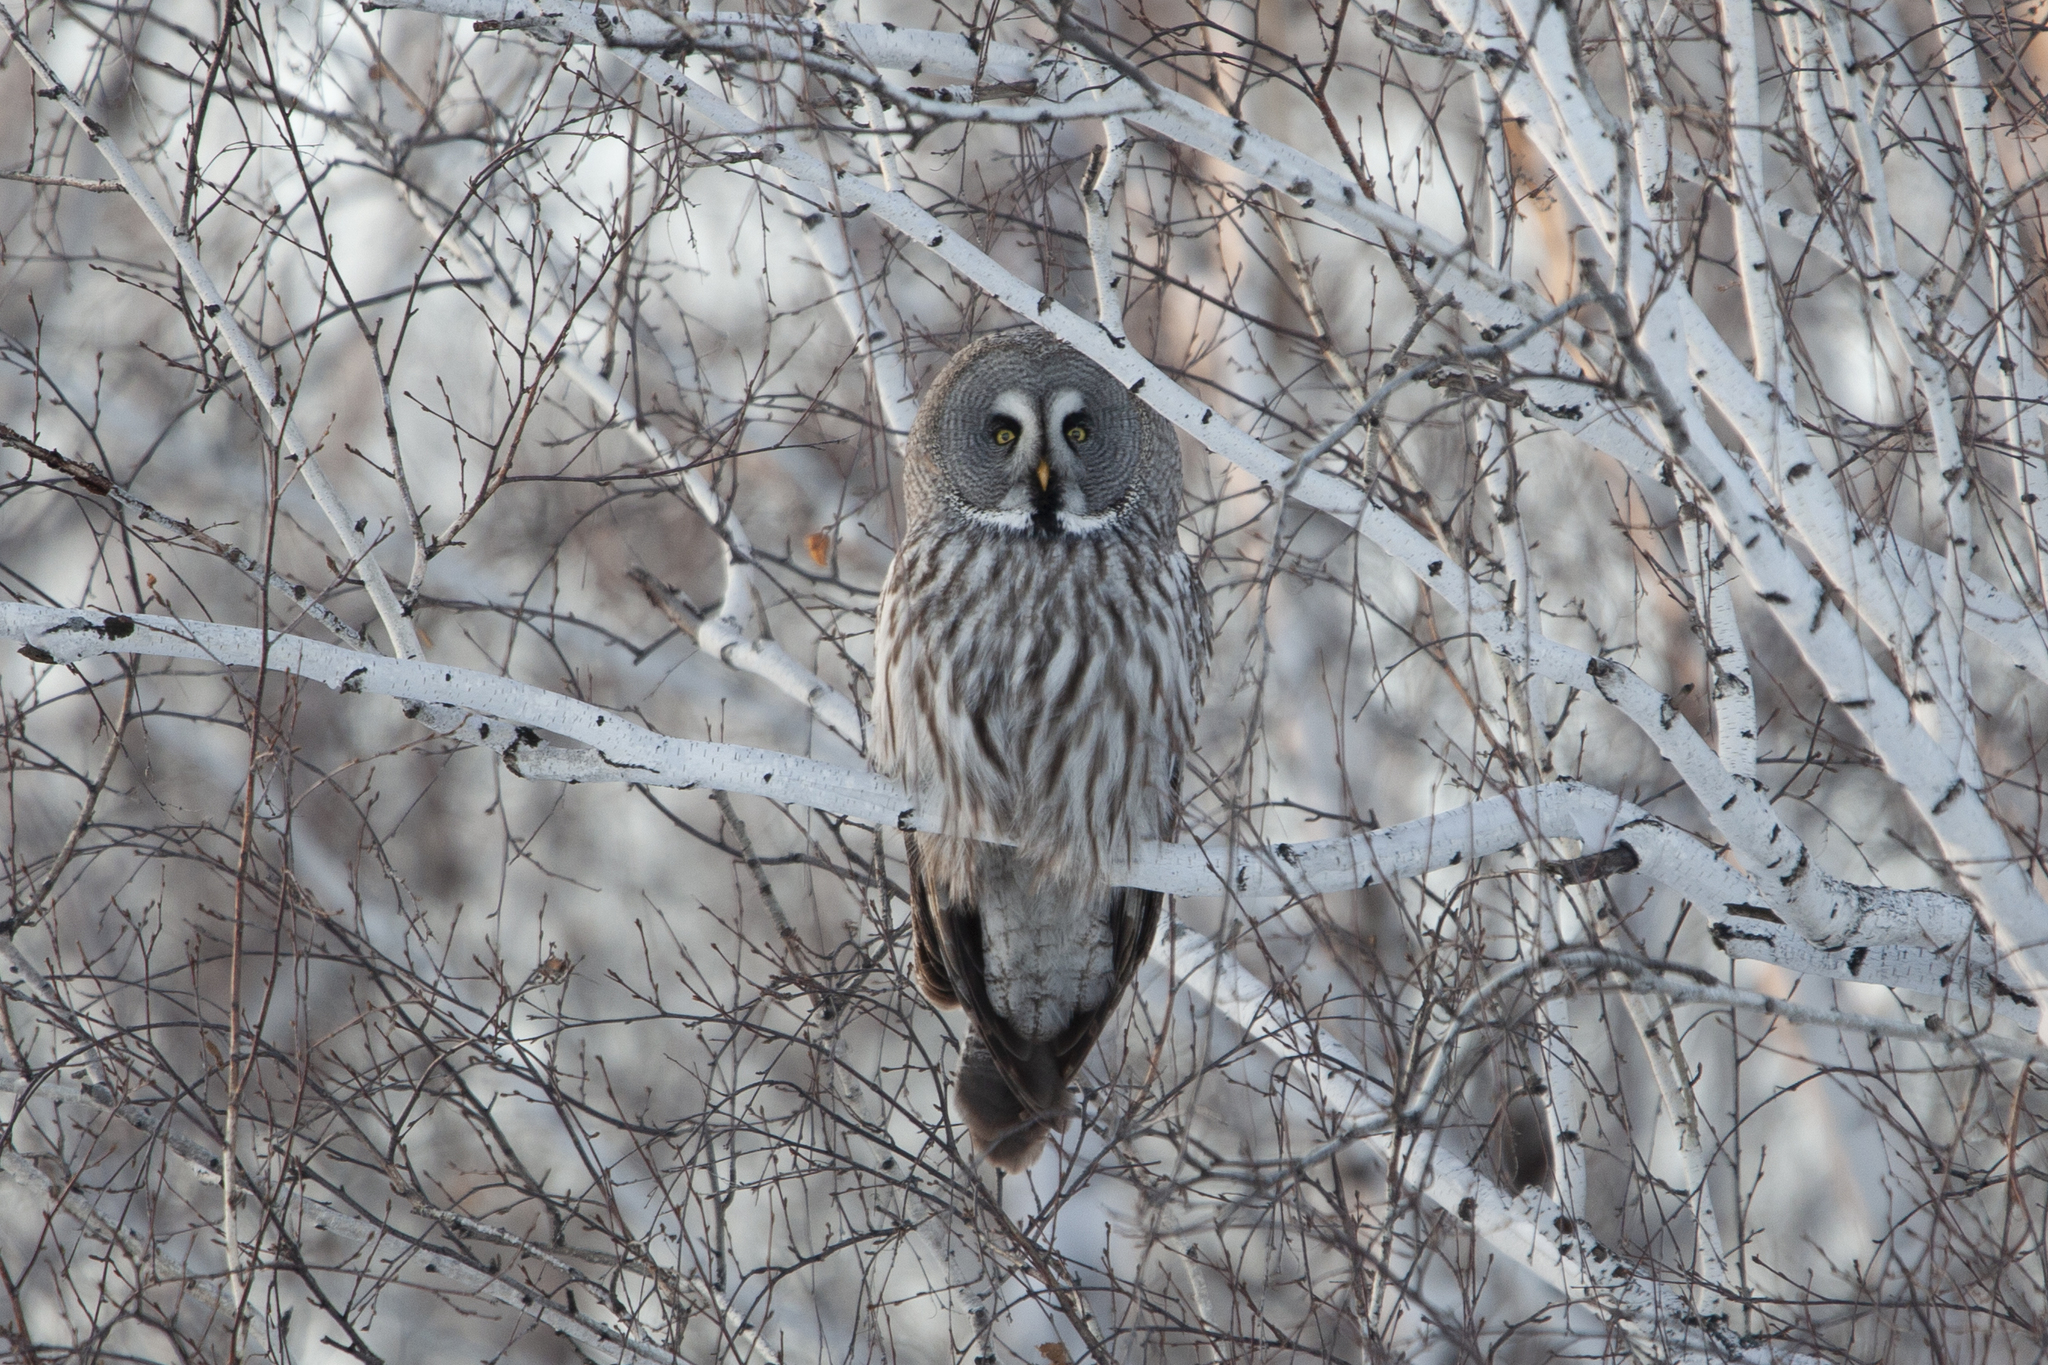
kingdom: Animalia
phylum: Chordata
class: Aves
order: Strigiformes
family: Strigidae
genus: Strix
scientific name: Strix nebulosa
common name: Great grey owl
